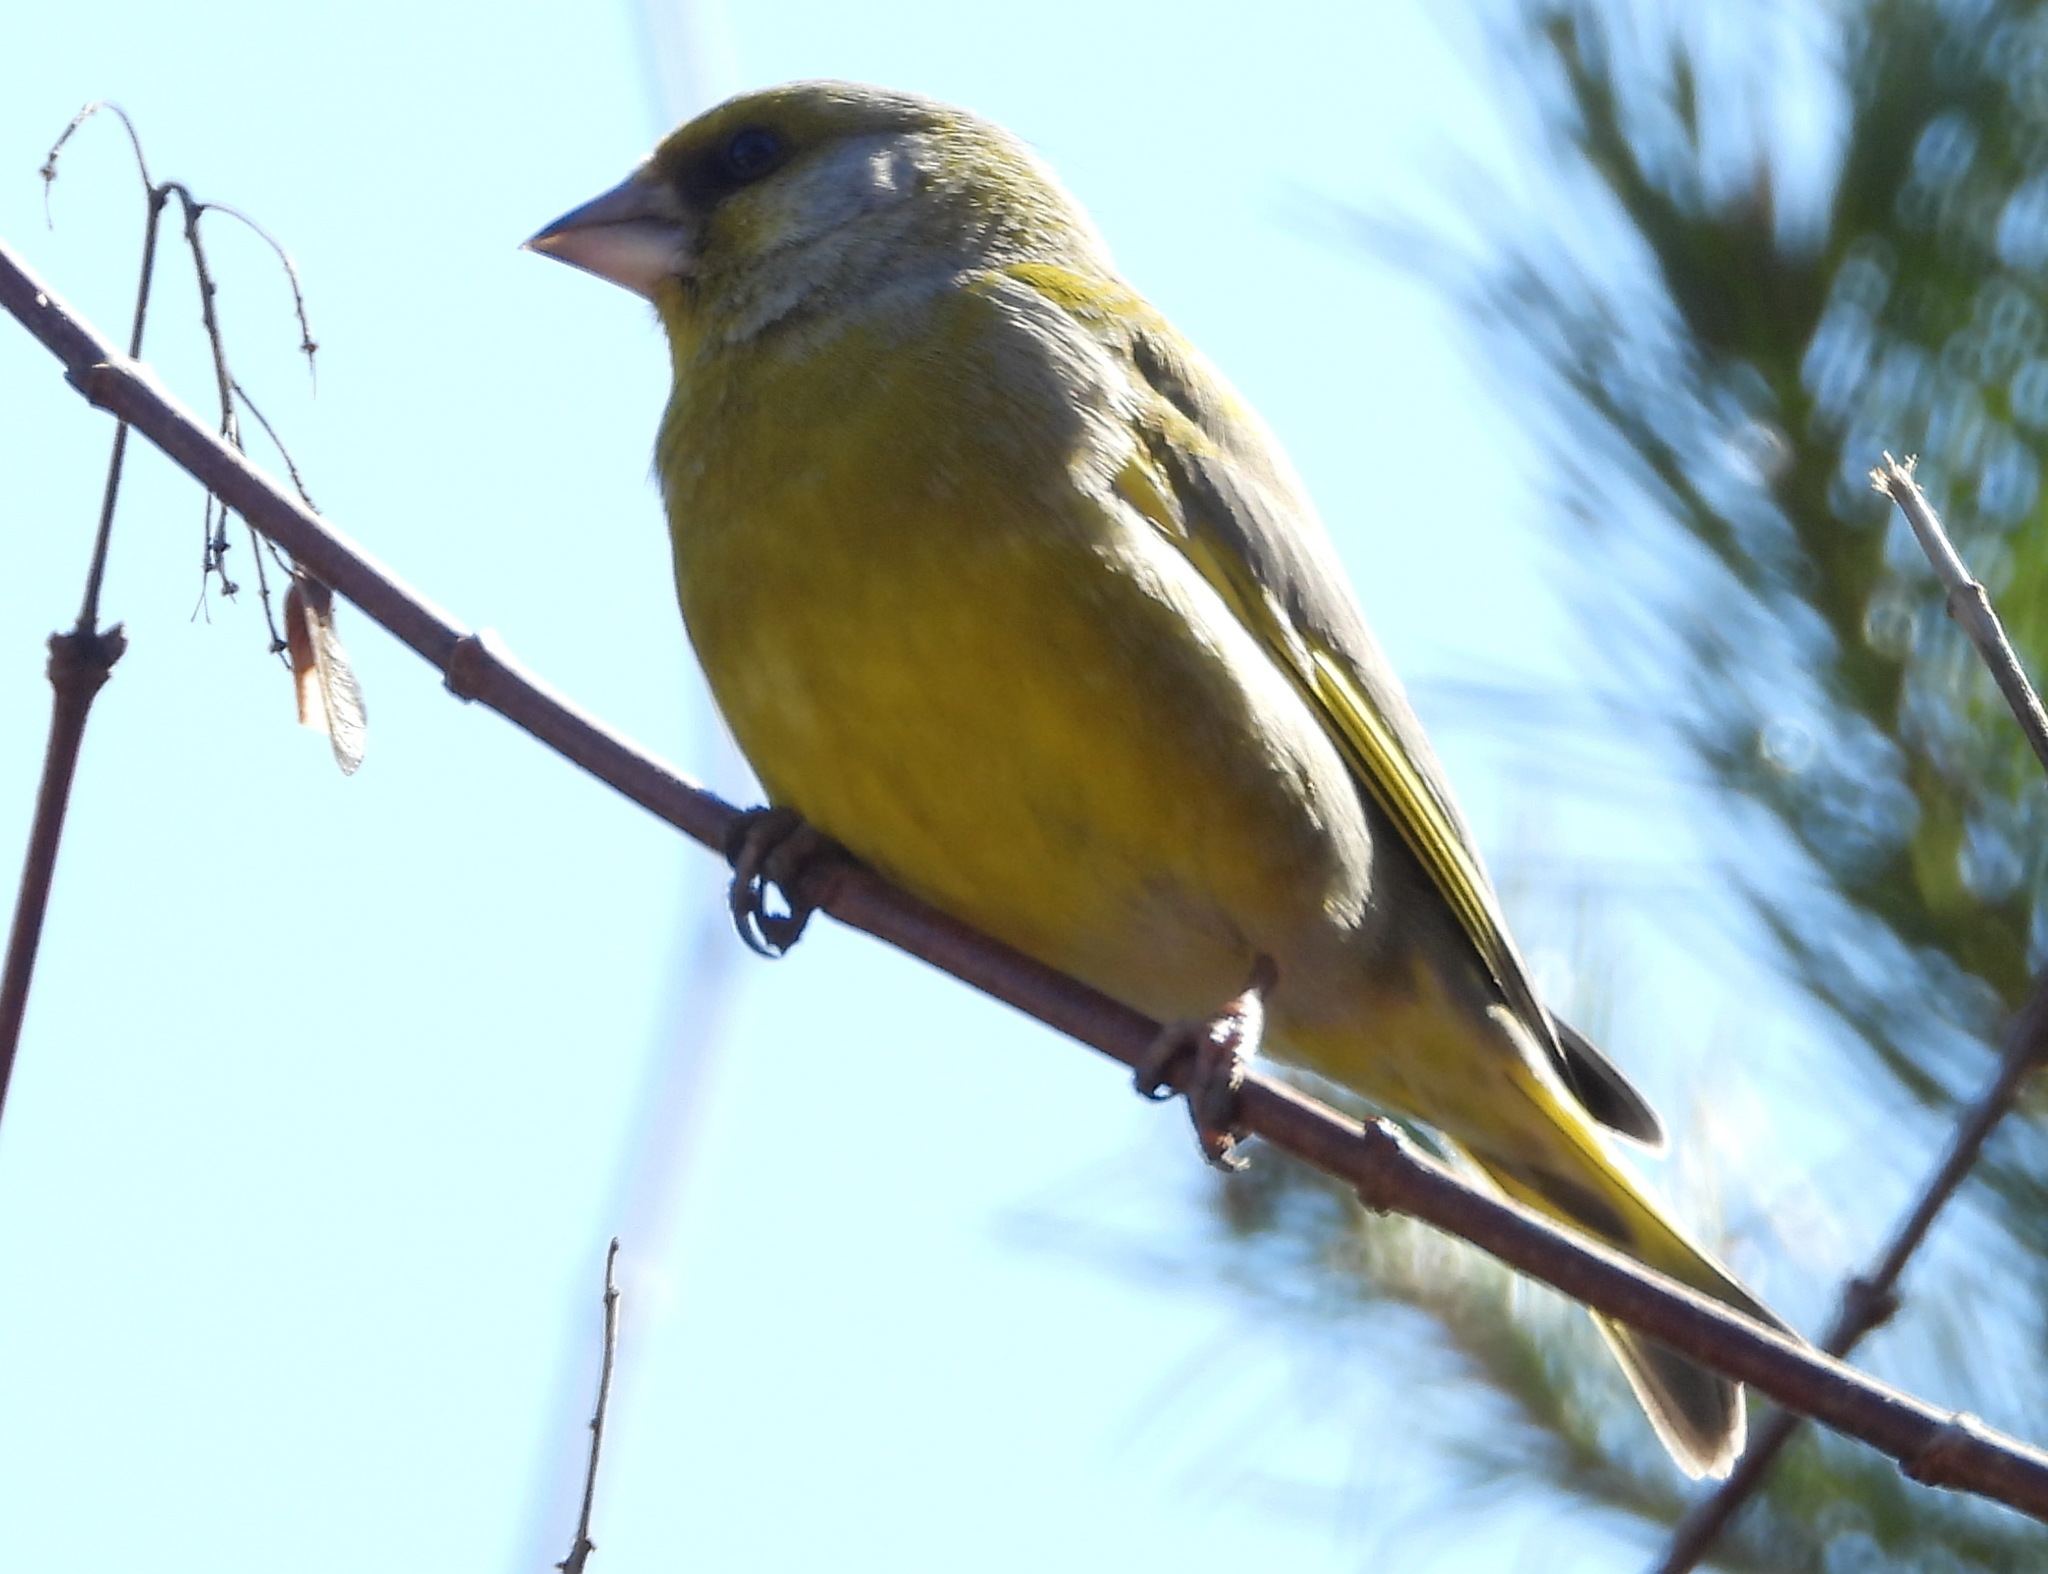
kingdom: Plantae
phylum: Tracheophyta
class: Liliopsida
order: Poales
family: Poaceae
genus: Chloris
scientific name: Chloris chloris
